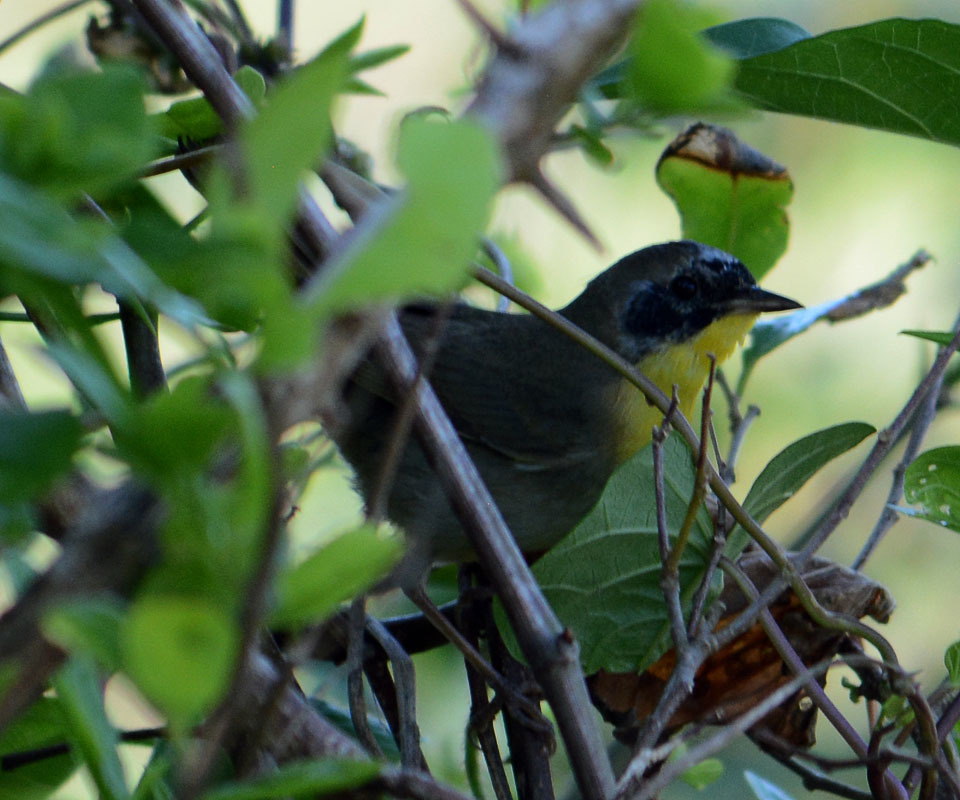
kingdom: Animalia
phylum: Chordata
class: Aves
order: Passeriformes
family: Parulidae
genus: Geothlypis
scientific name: Geothlypis trichas
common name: Common yellowthroat
